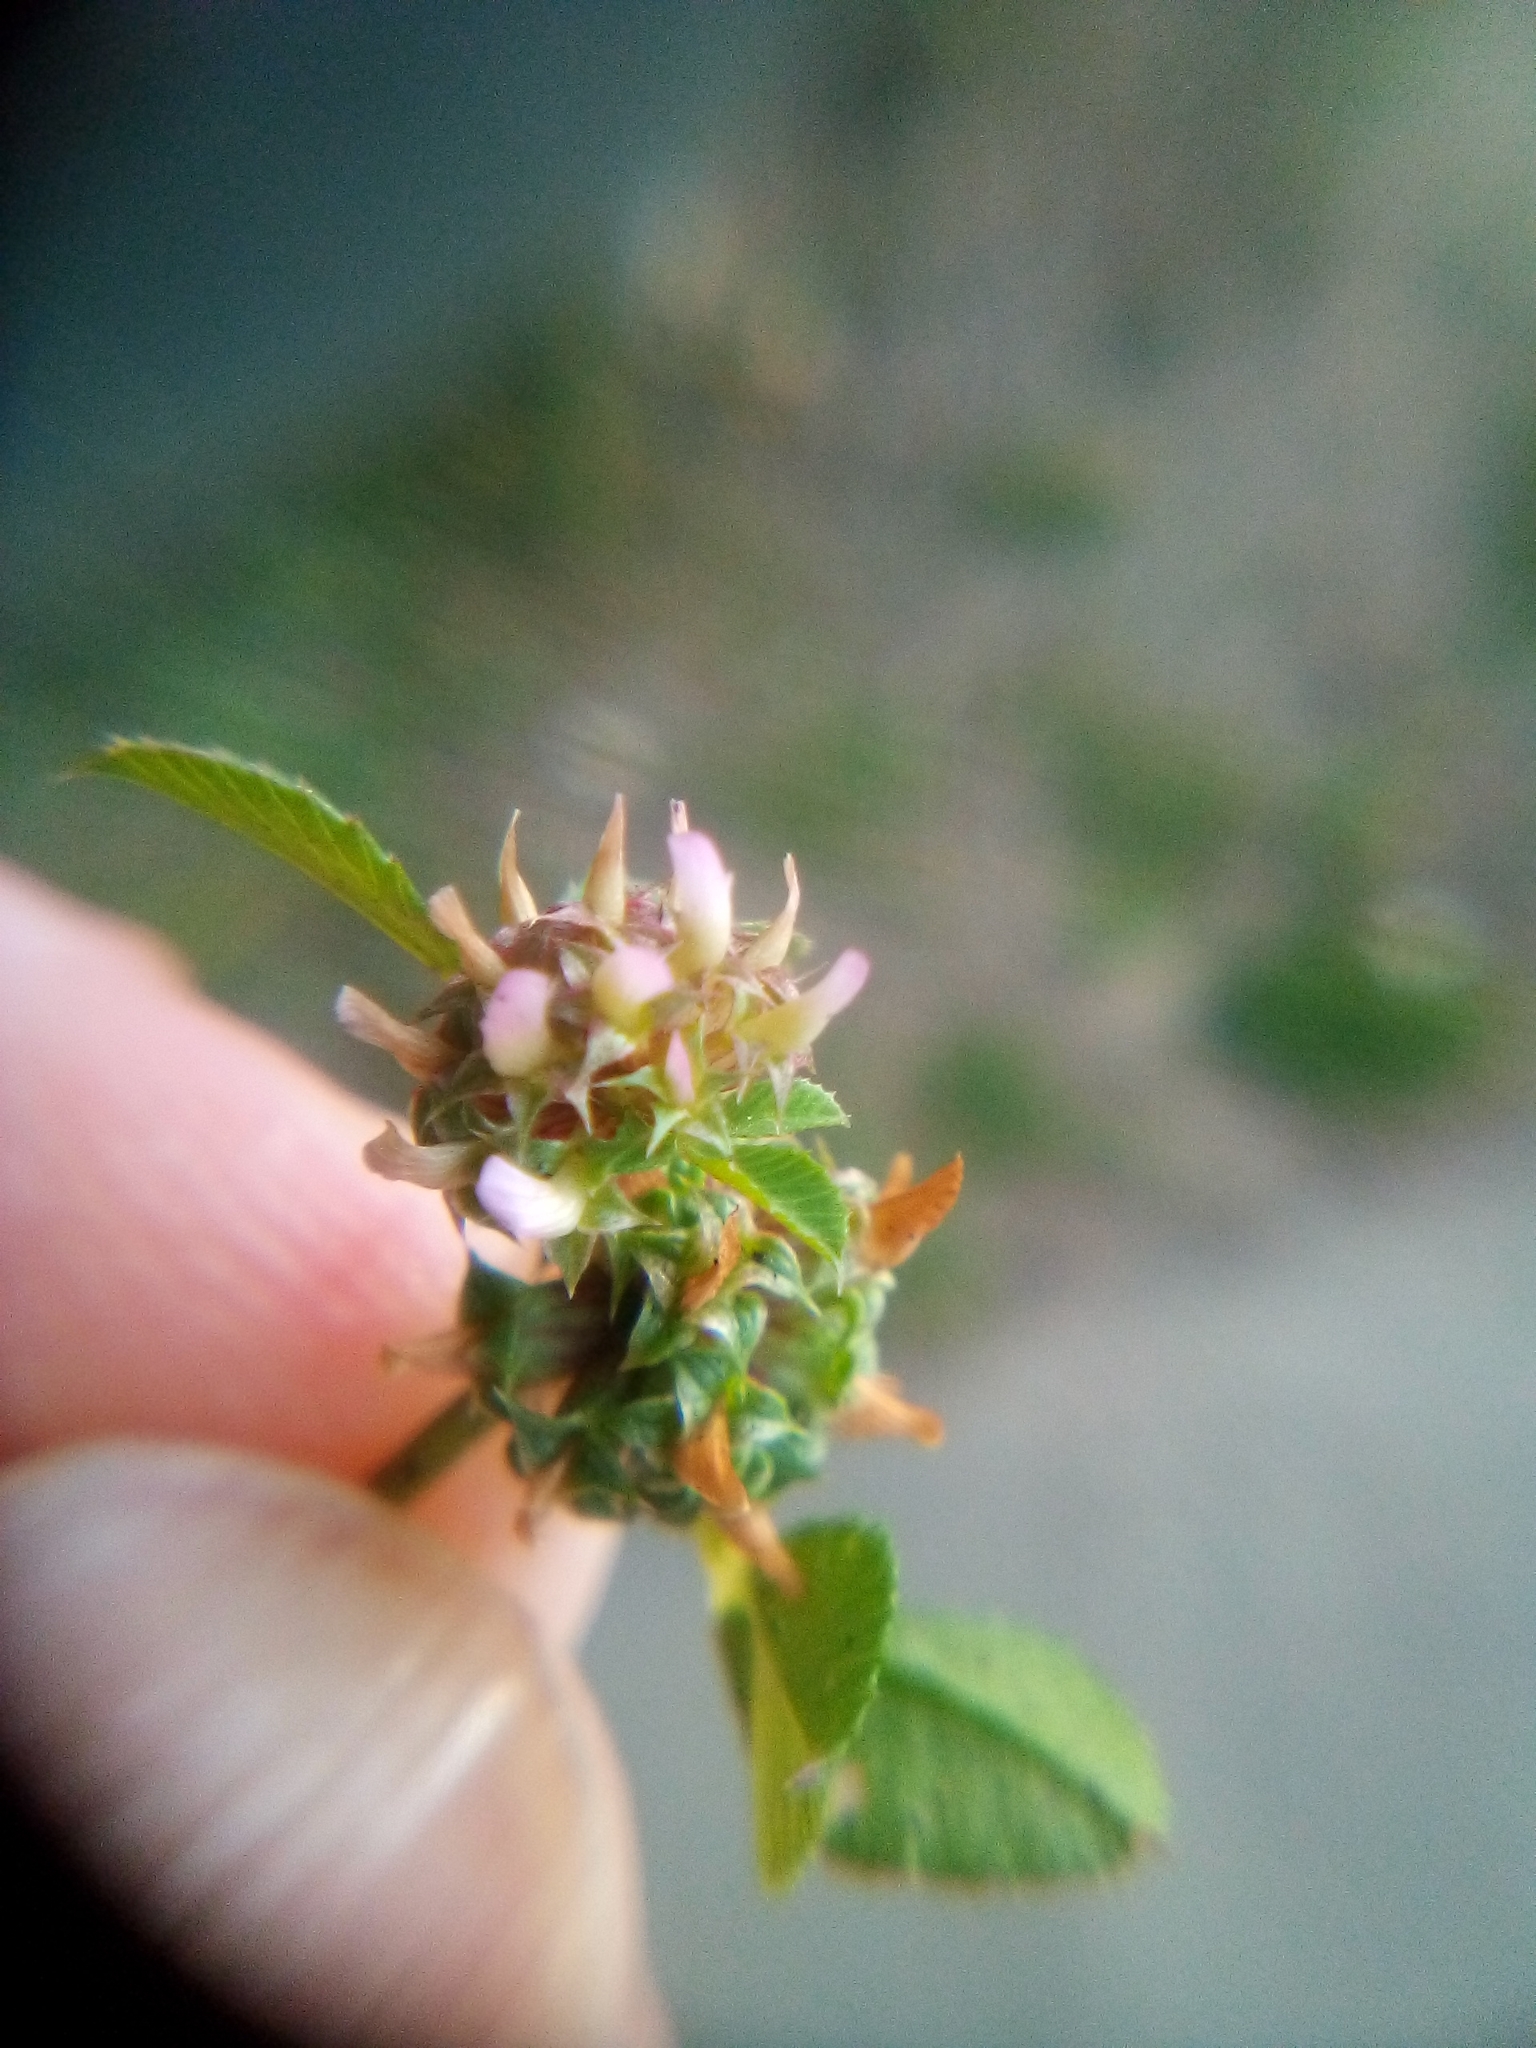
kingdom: Plantae
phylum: Tracheophyta
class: Magnoliopsida
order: Fabales
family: Fabaceae
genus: Trifolium
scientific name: Trifolium glomeratum
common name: Clustered clover
